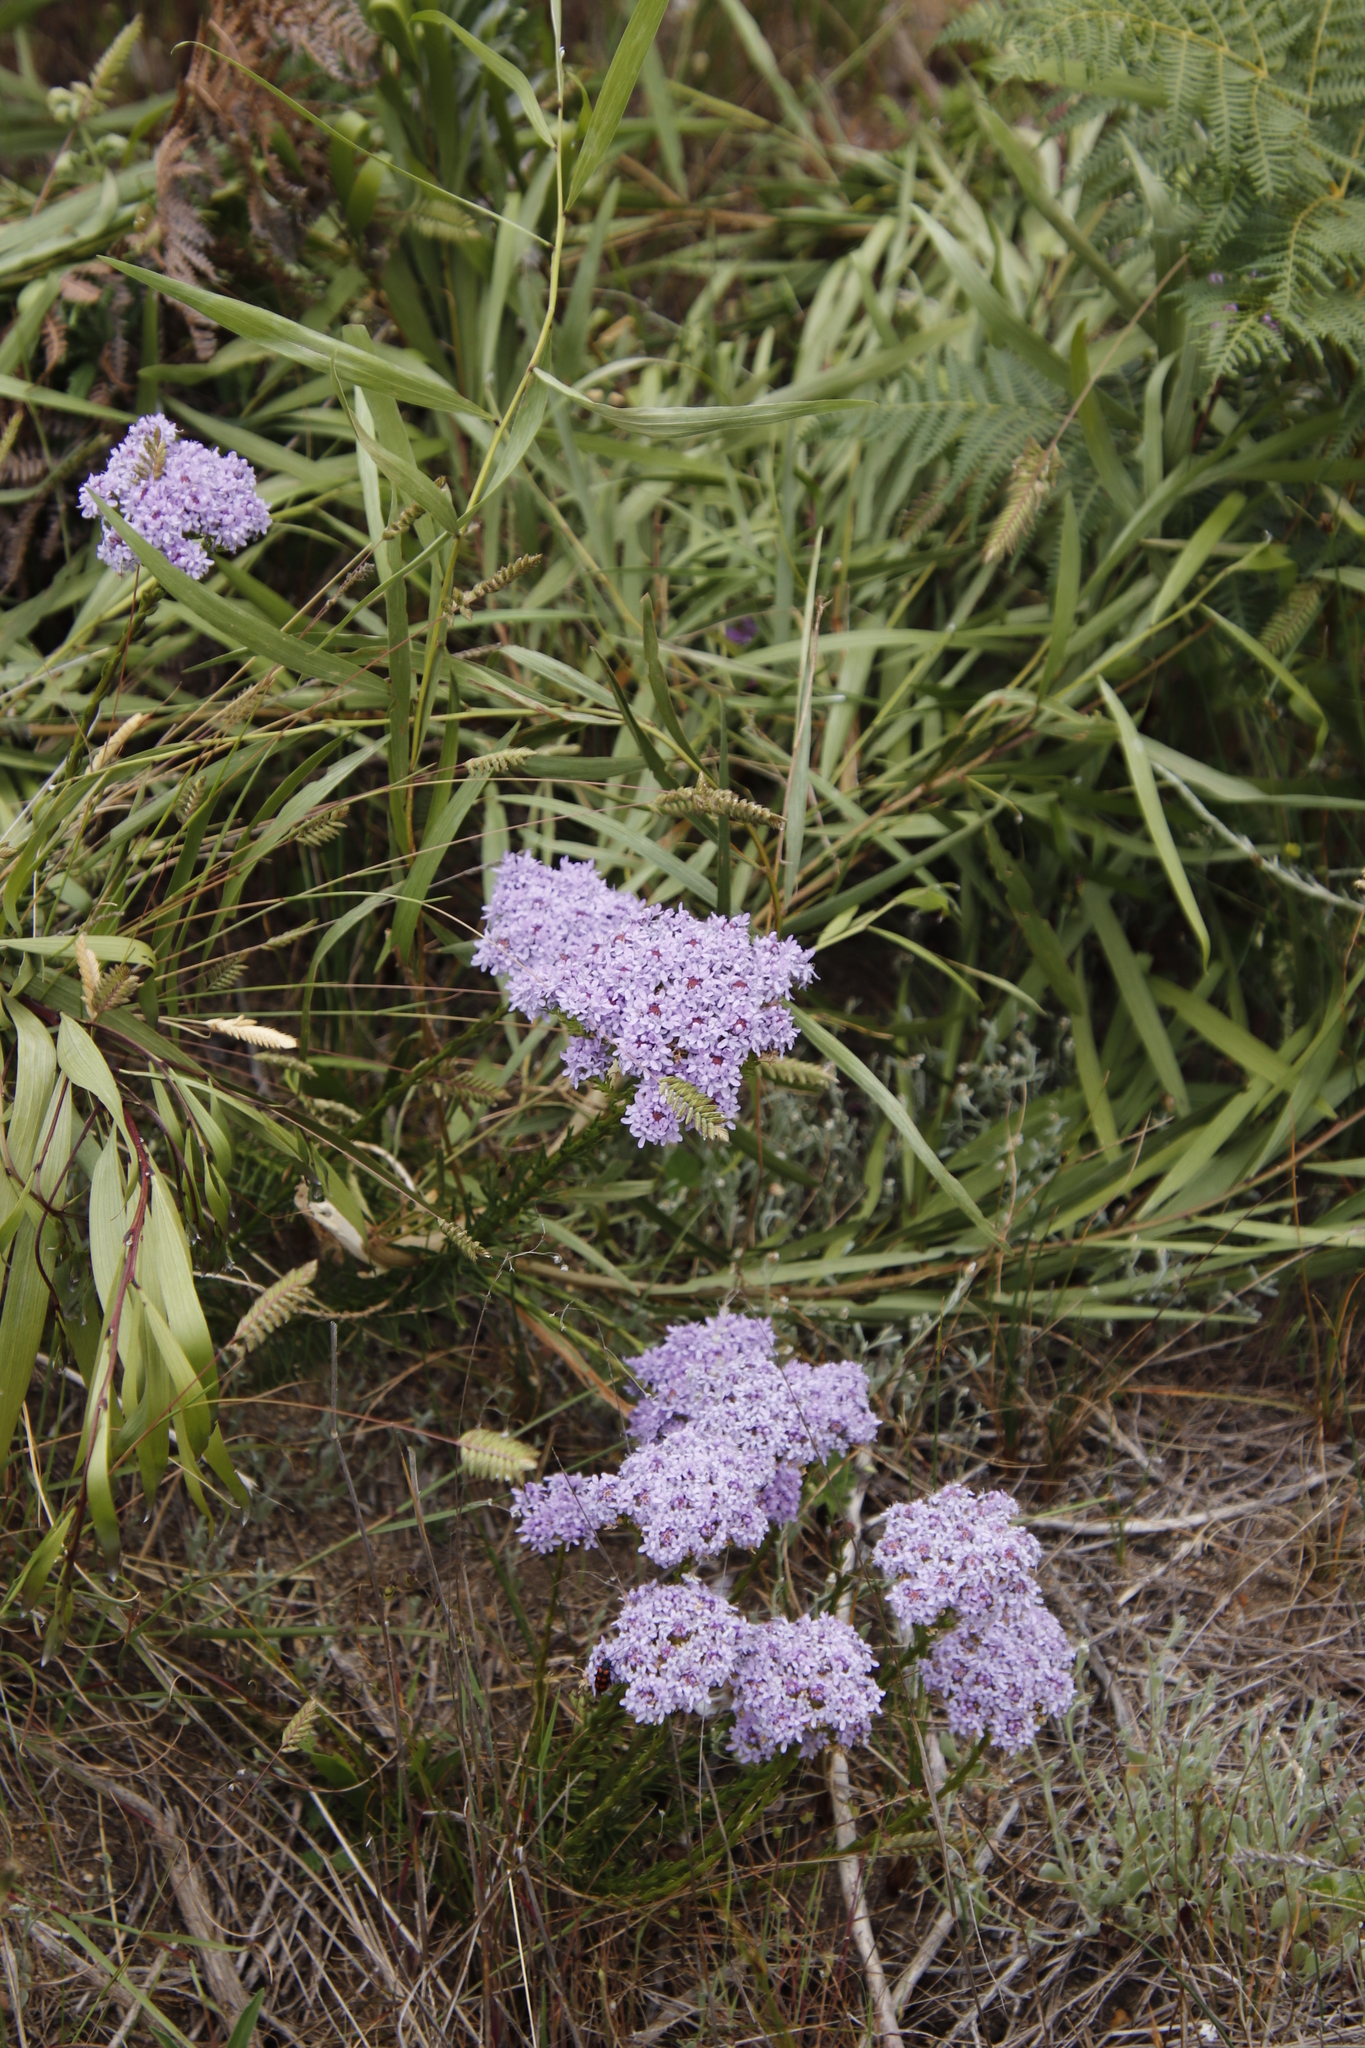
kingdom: Plantae
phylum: Tracheophyta
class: Magnoliopsida
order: Lamiales
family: Scrophulariaceae
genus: Pseudoselago
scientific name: Pseudoselago spuria
